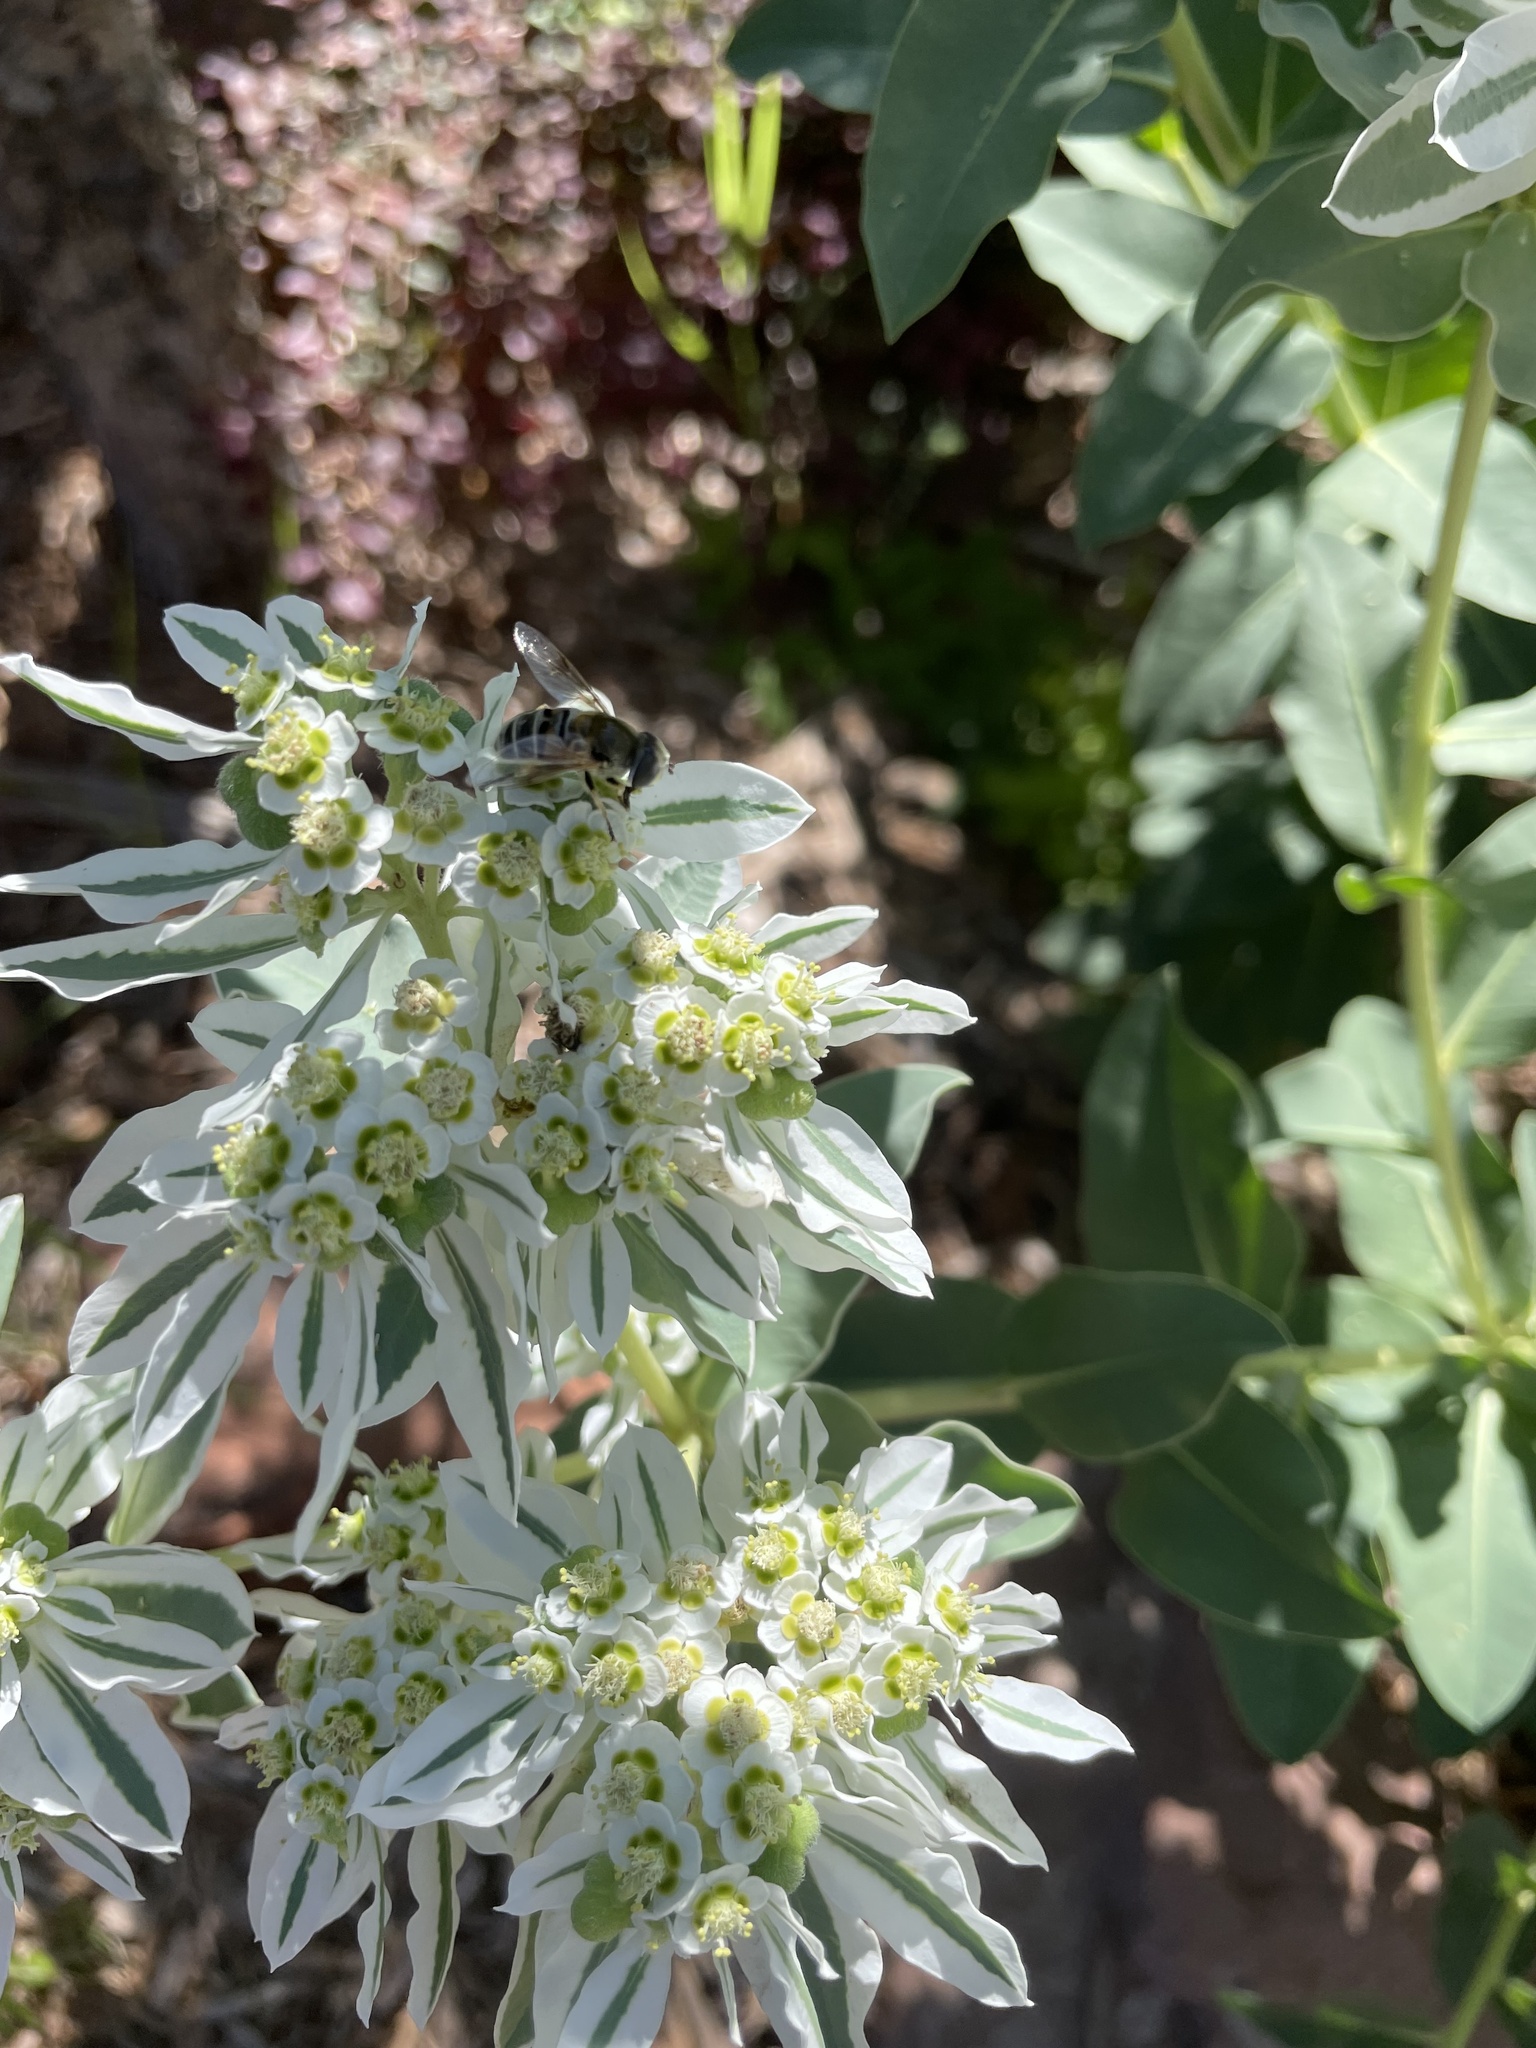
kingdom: Animalia
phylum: Arthropoda
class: Insecta
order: Diptera
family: Syrphidae
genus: Eristalis
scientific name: Eristalis stipator
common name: Yellow-shouldered drone fly
